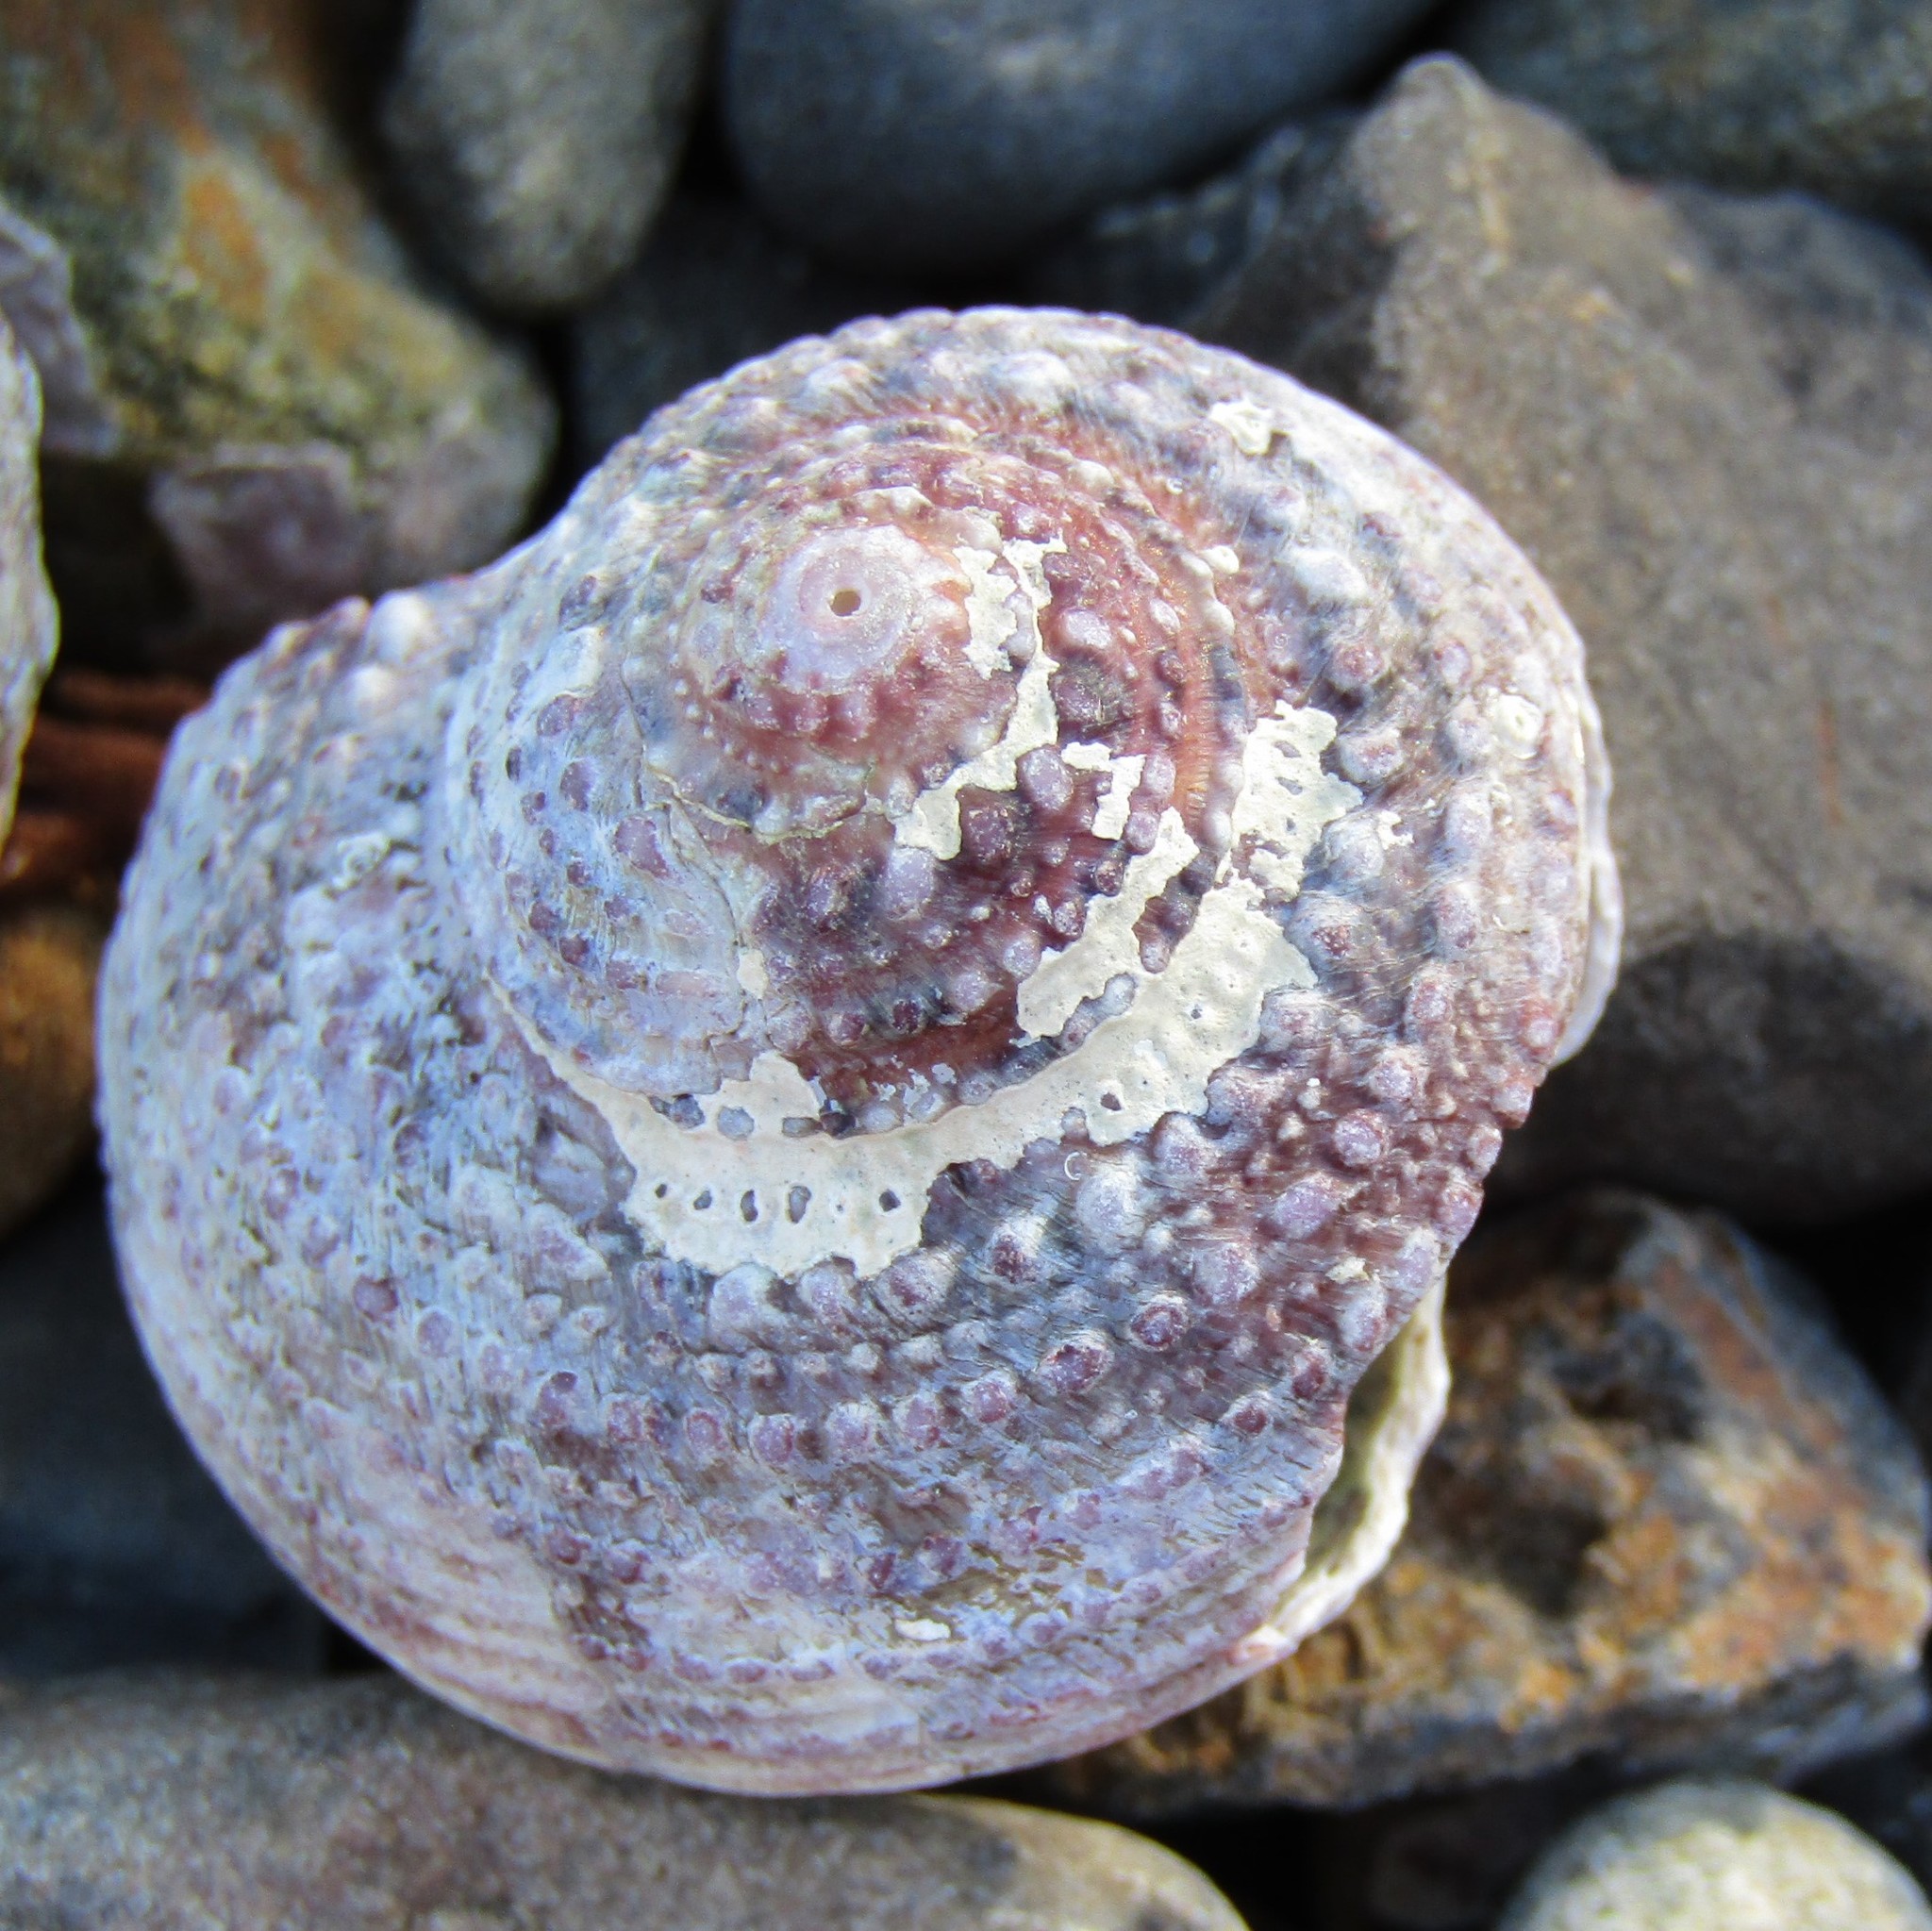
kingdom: Animalia
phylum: Mollusca
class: Gastropoda
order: Trochida
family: Turbinidae
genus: Modelia
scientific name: Modelia granosa
